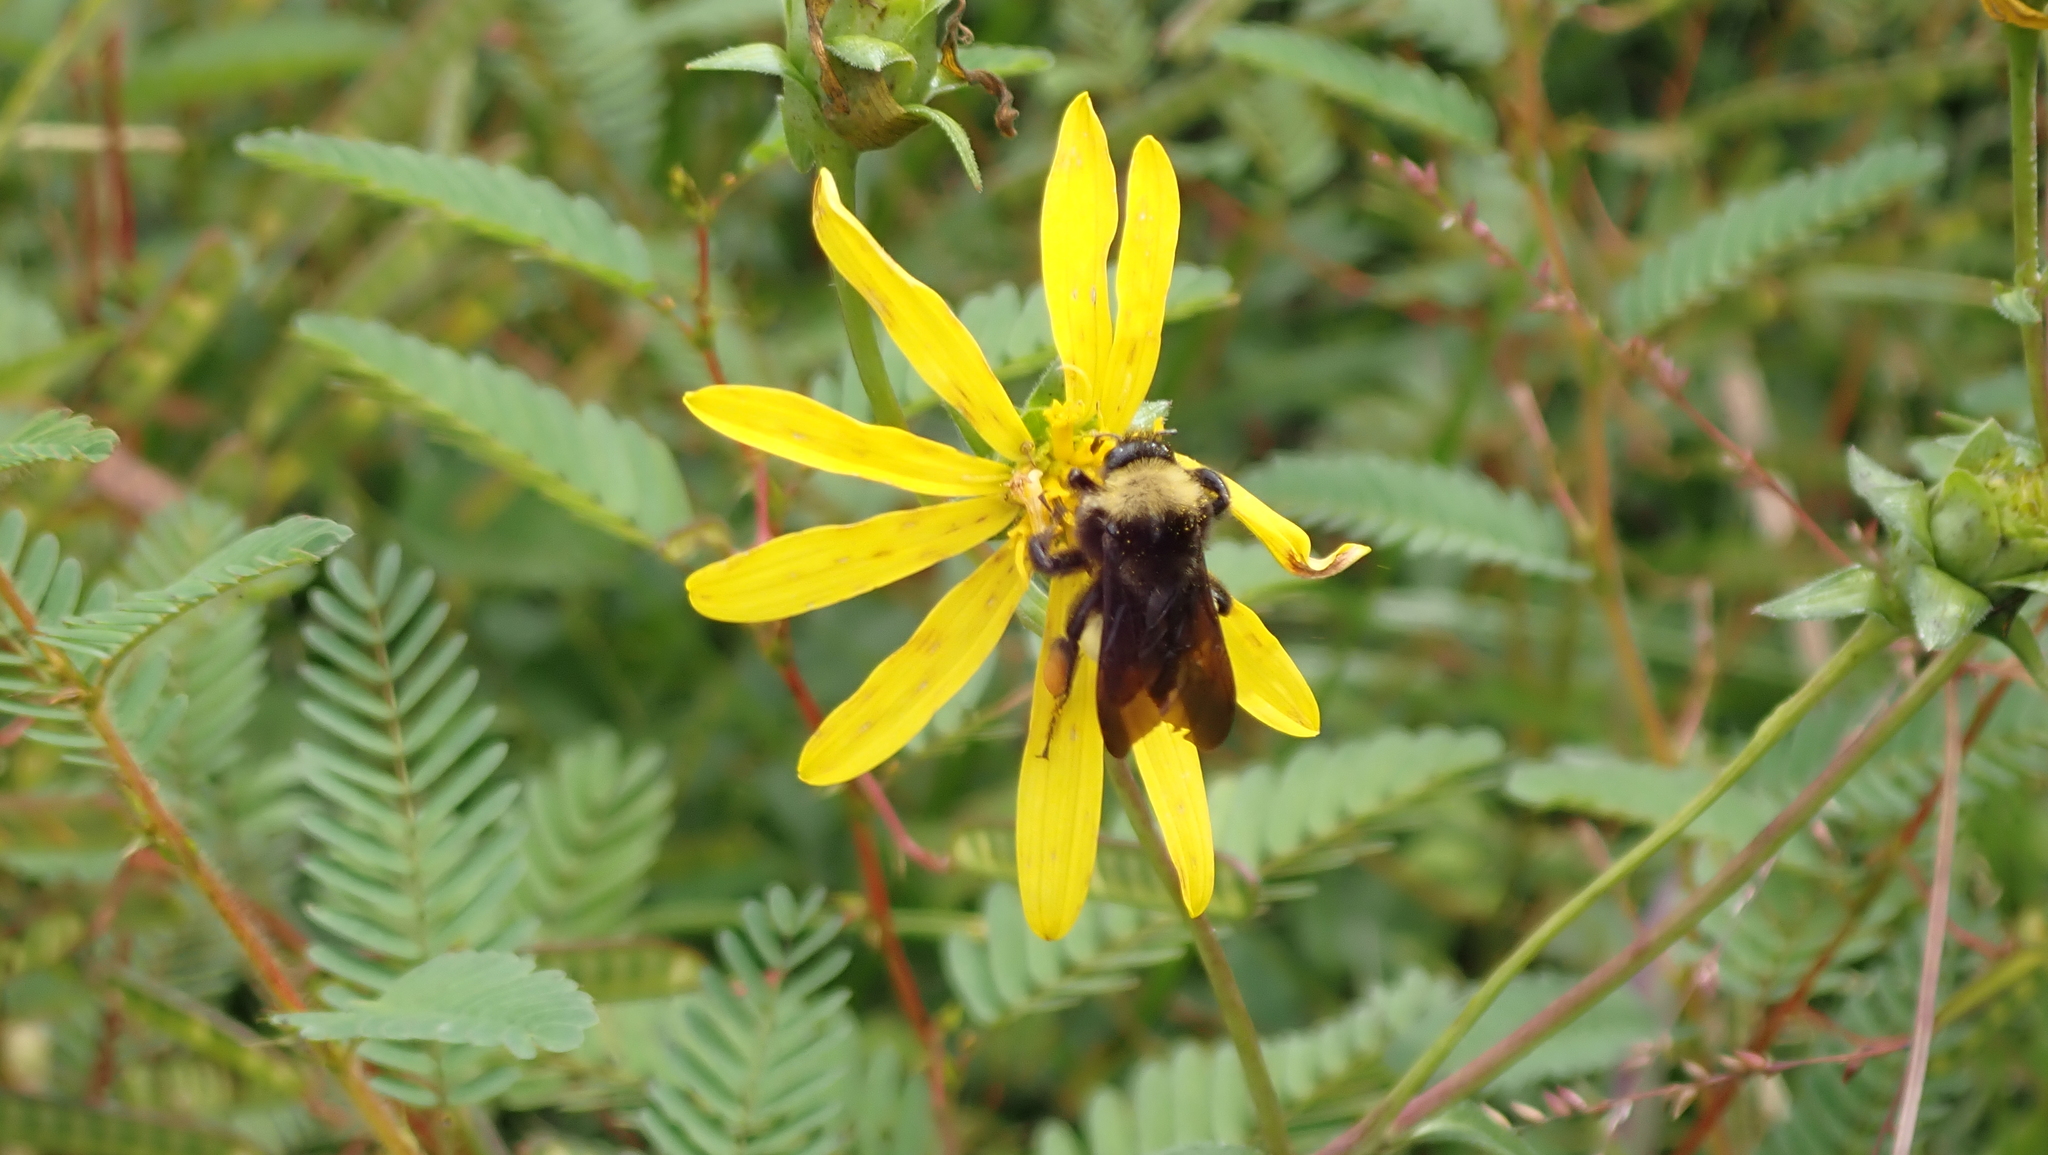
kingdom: Animalia
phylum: Arthropoda
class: Insecta
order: Hymenoptera
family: Apidae
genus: Bombus
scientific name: Bombus pensylvanicus
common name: Bumble bee
